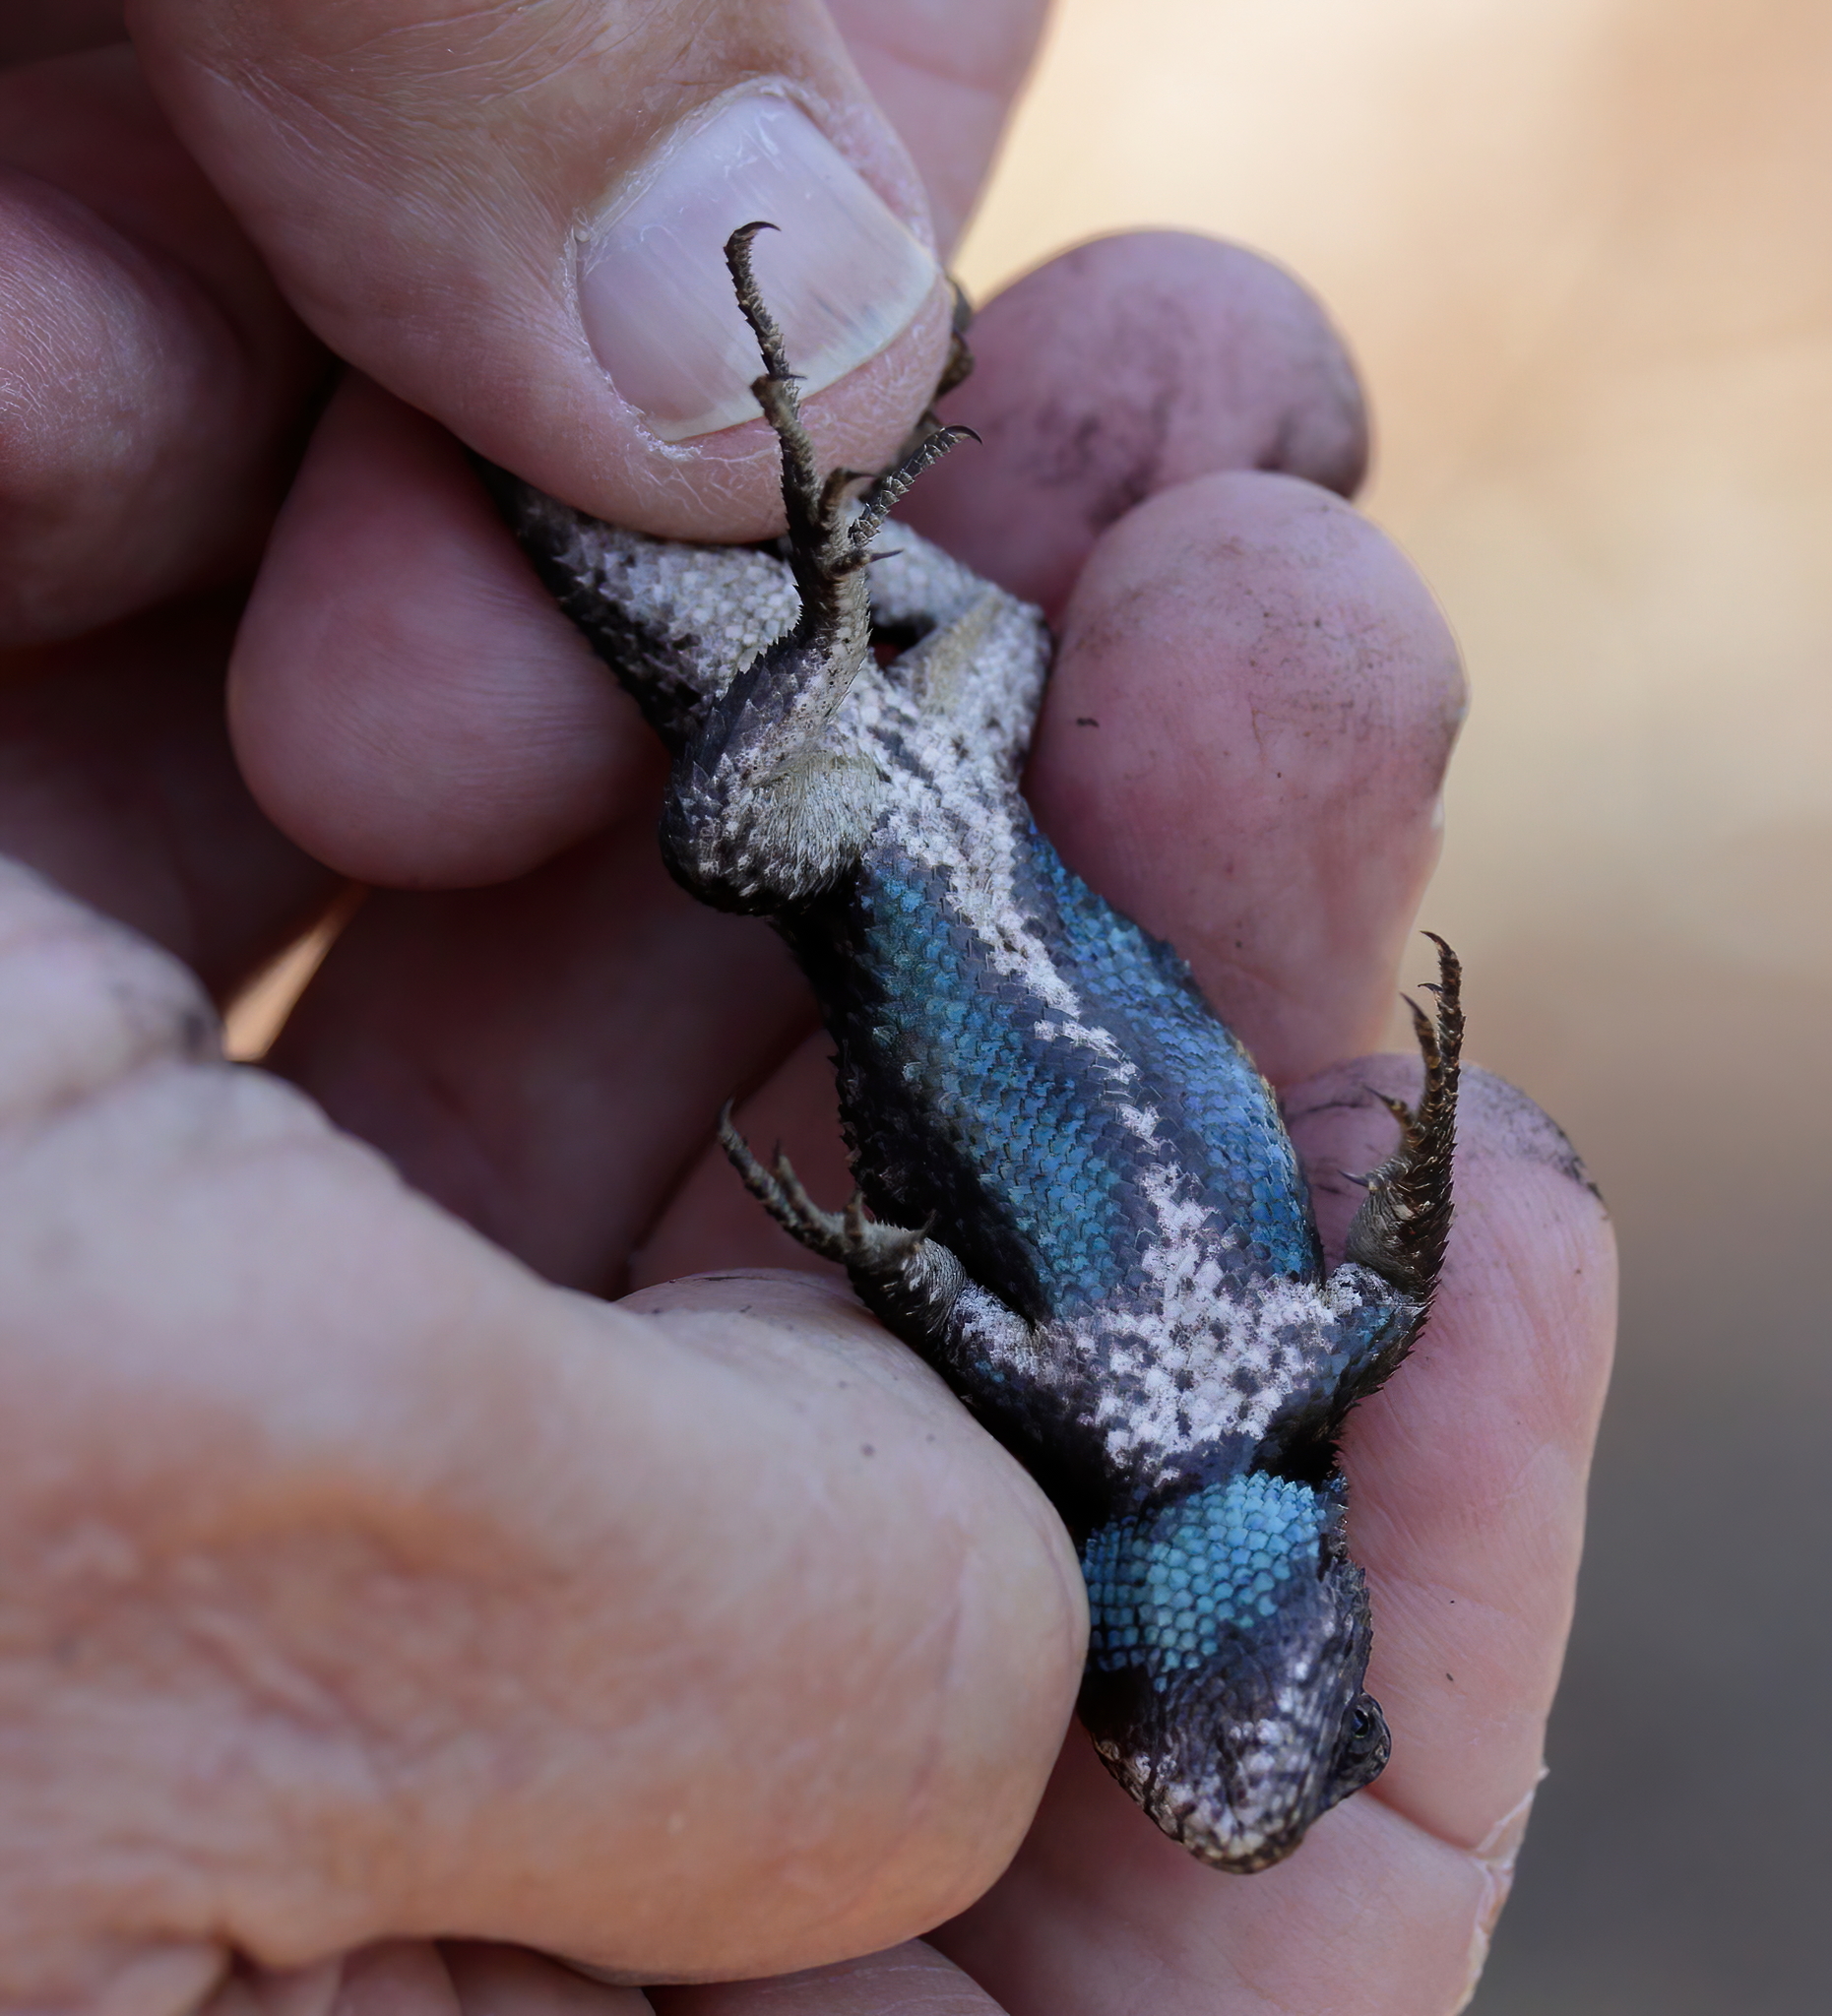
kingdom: Animalia
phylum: Chordata
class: Squamata
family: Phrynosomatidae
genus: Sceloporus
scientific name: Sceloporus undulatus
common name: Eastern fence lizard
